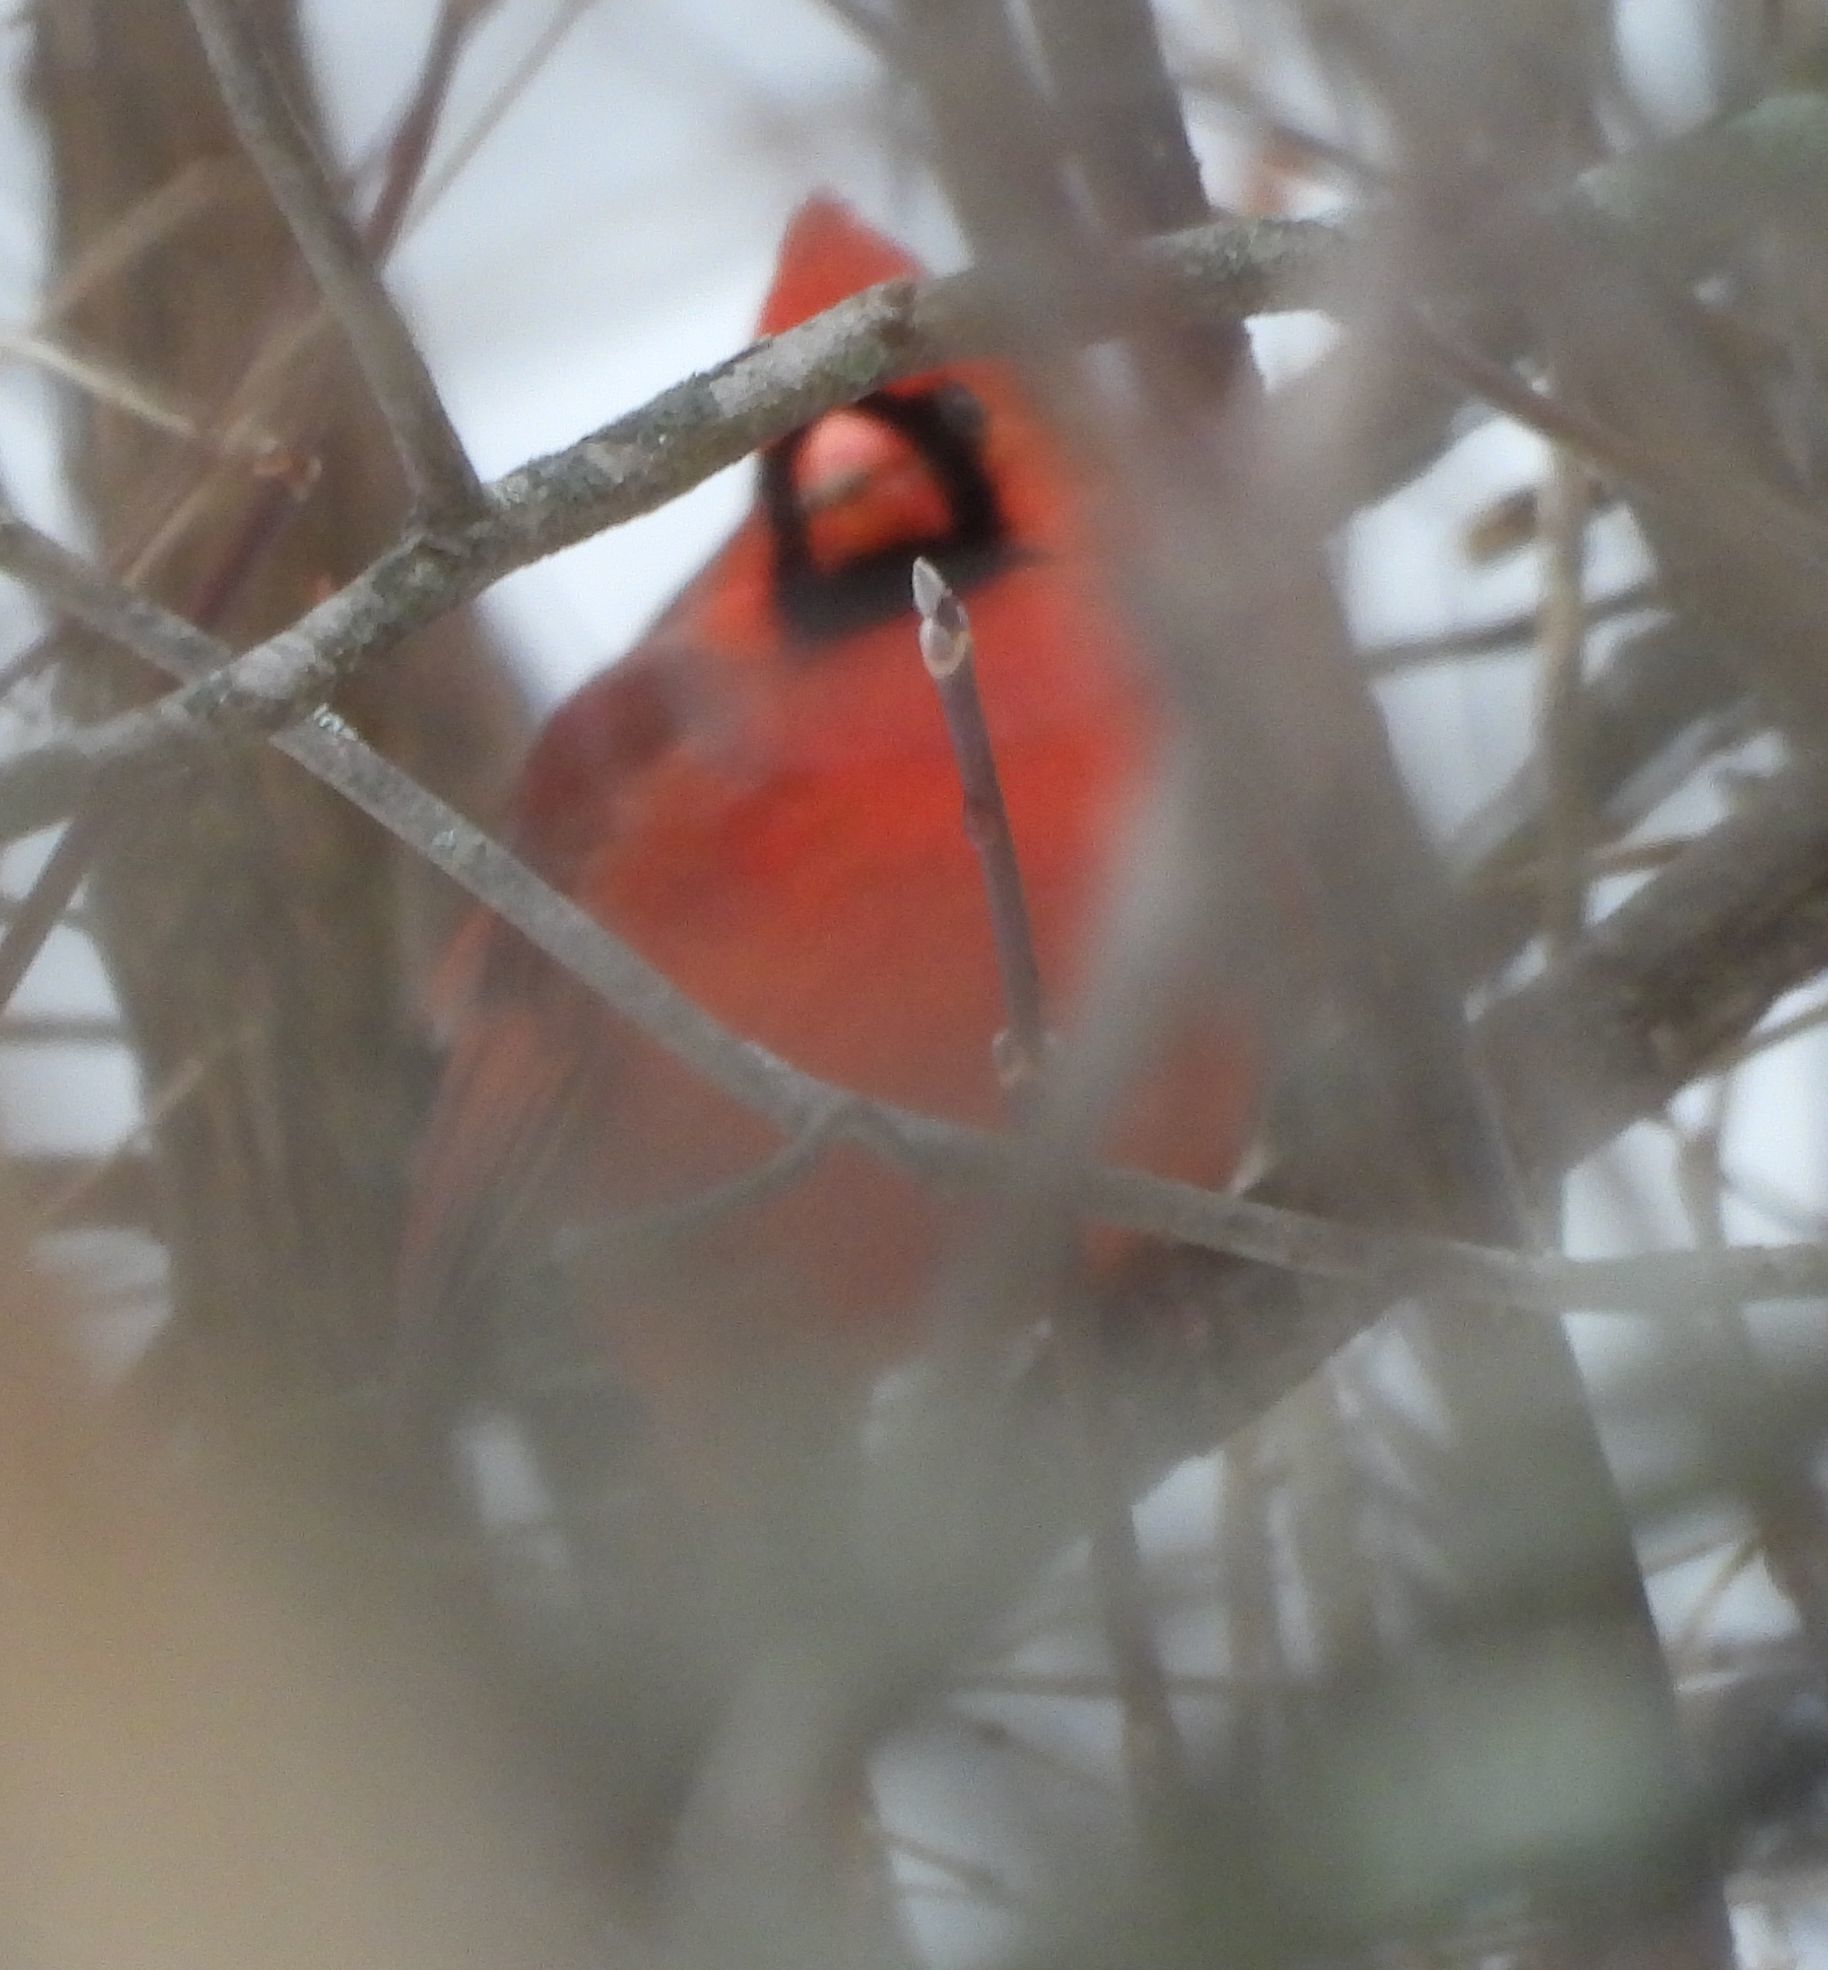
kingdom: Animalia
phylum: Chordata
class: Aves
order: Passeriformes
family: Cardinalidae
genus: Cardinalis
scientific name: Cardinalis cardinalis
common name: Northern cardinal
